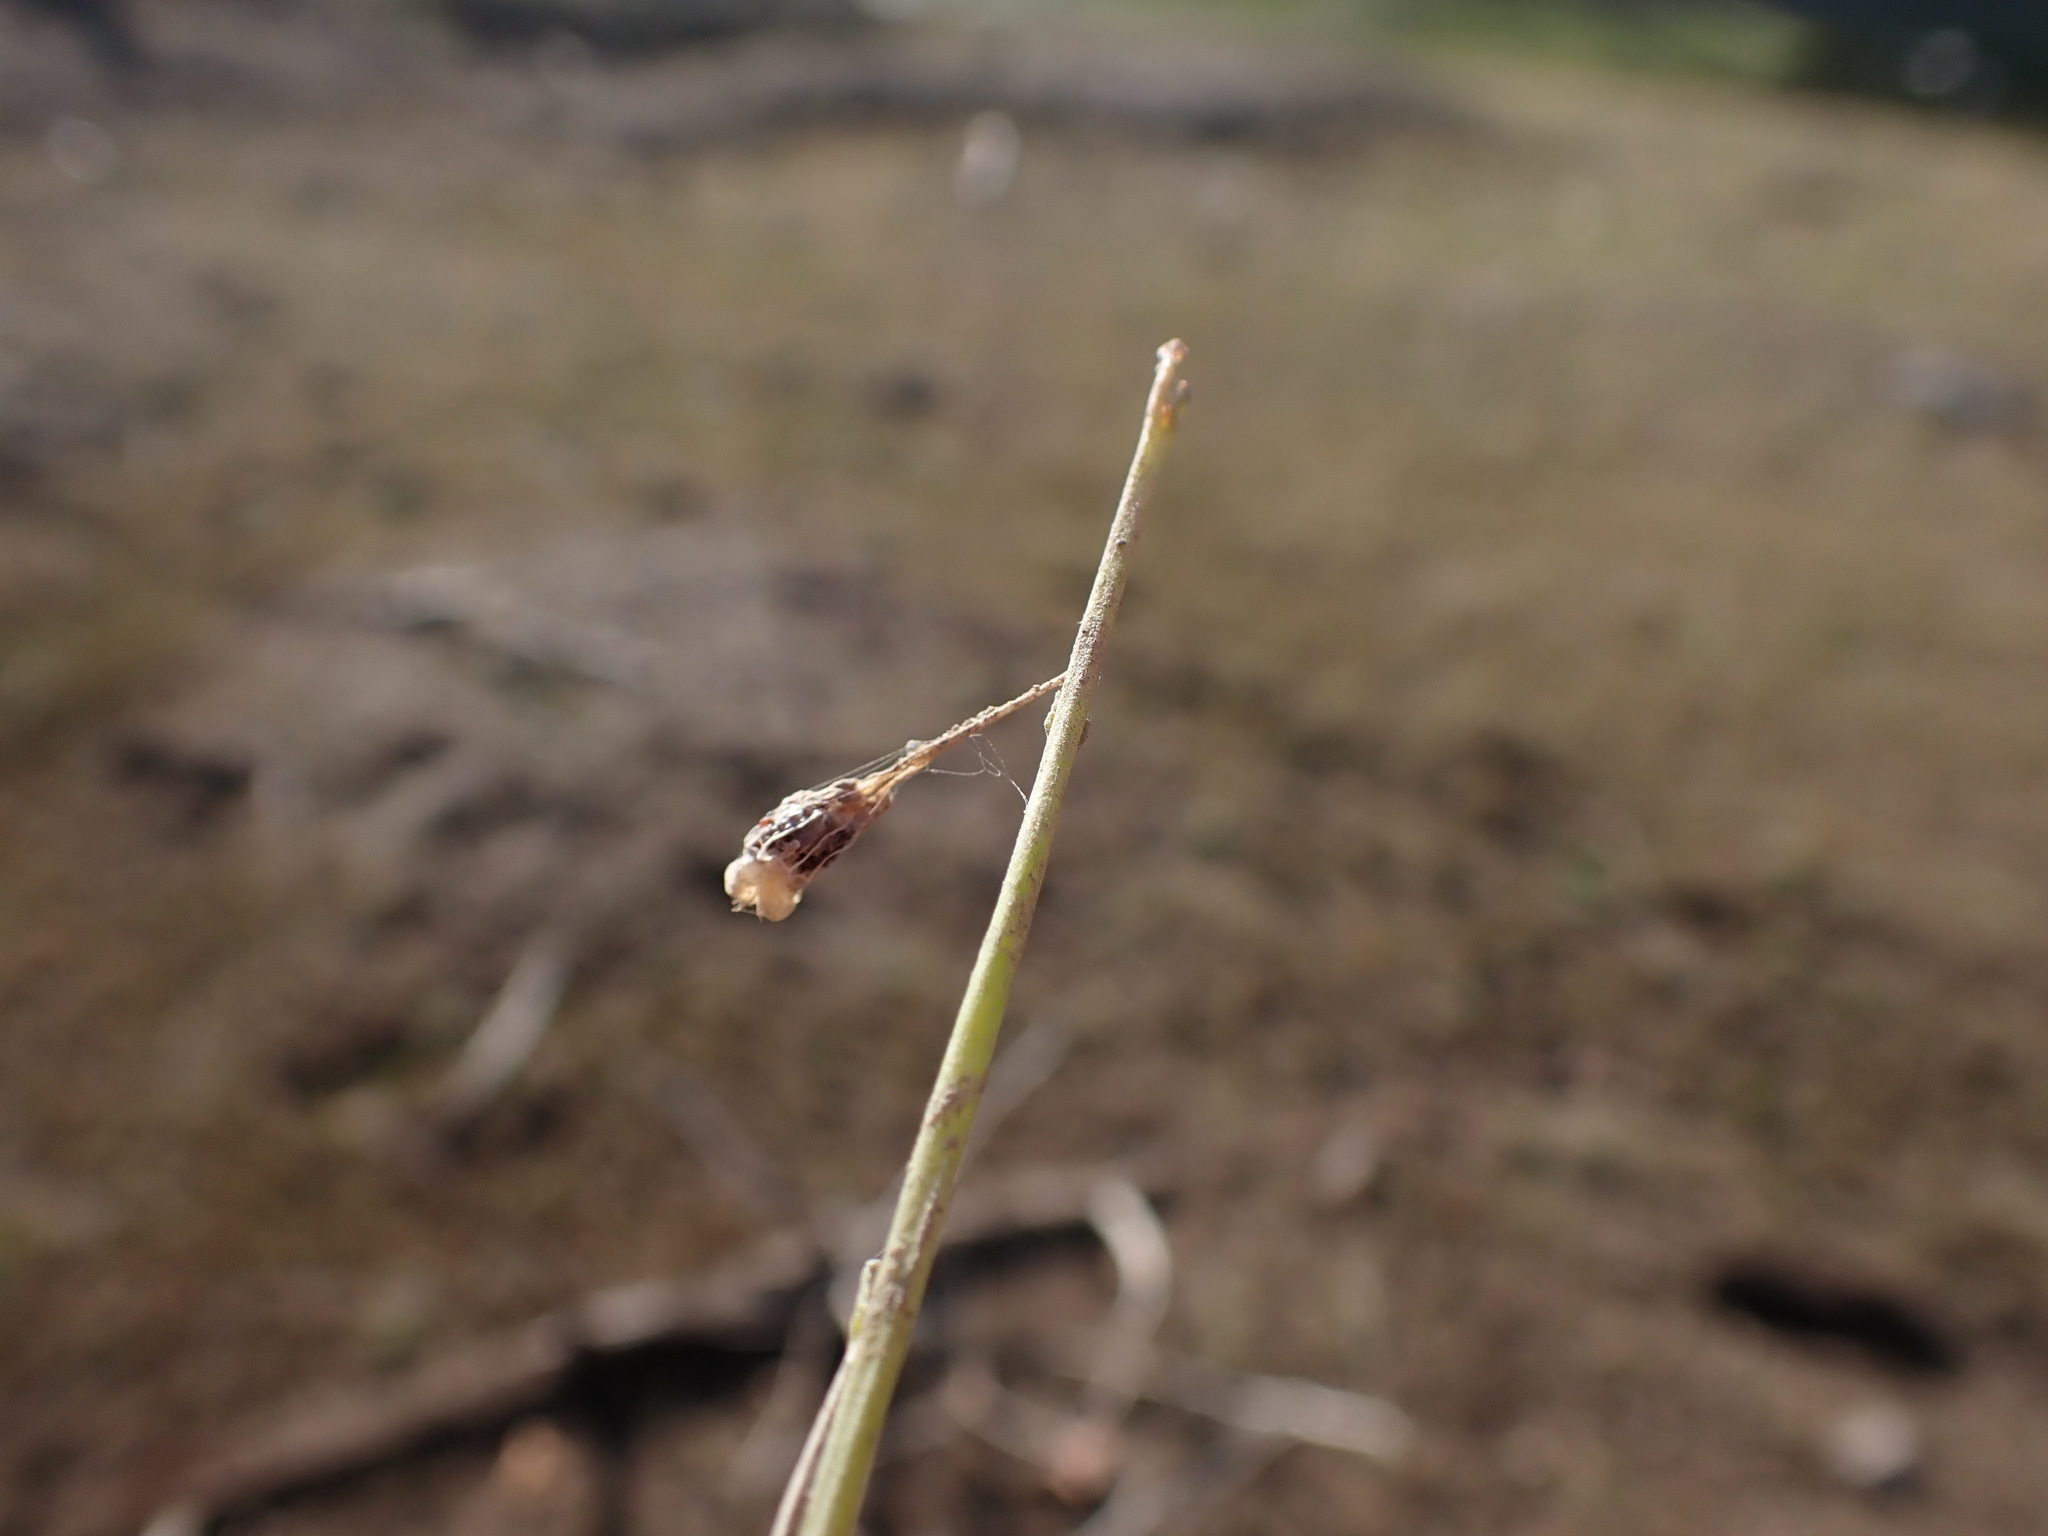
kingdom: Plantae
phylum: Tracheophyta
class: Magnoliopsida
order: Asterales
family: Campanulaceae
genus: Lobelia
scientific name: Lobelia dortmanna
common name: Water lobelia
